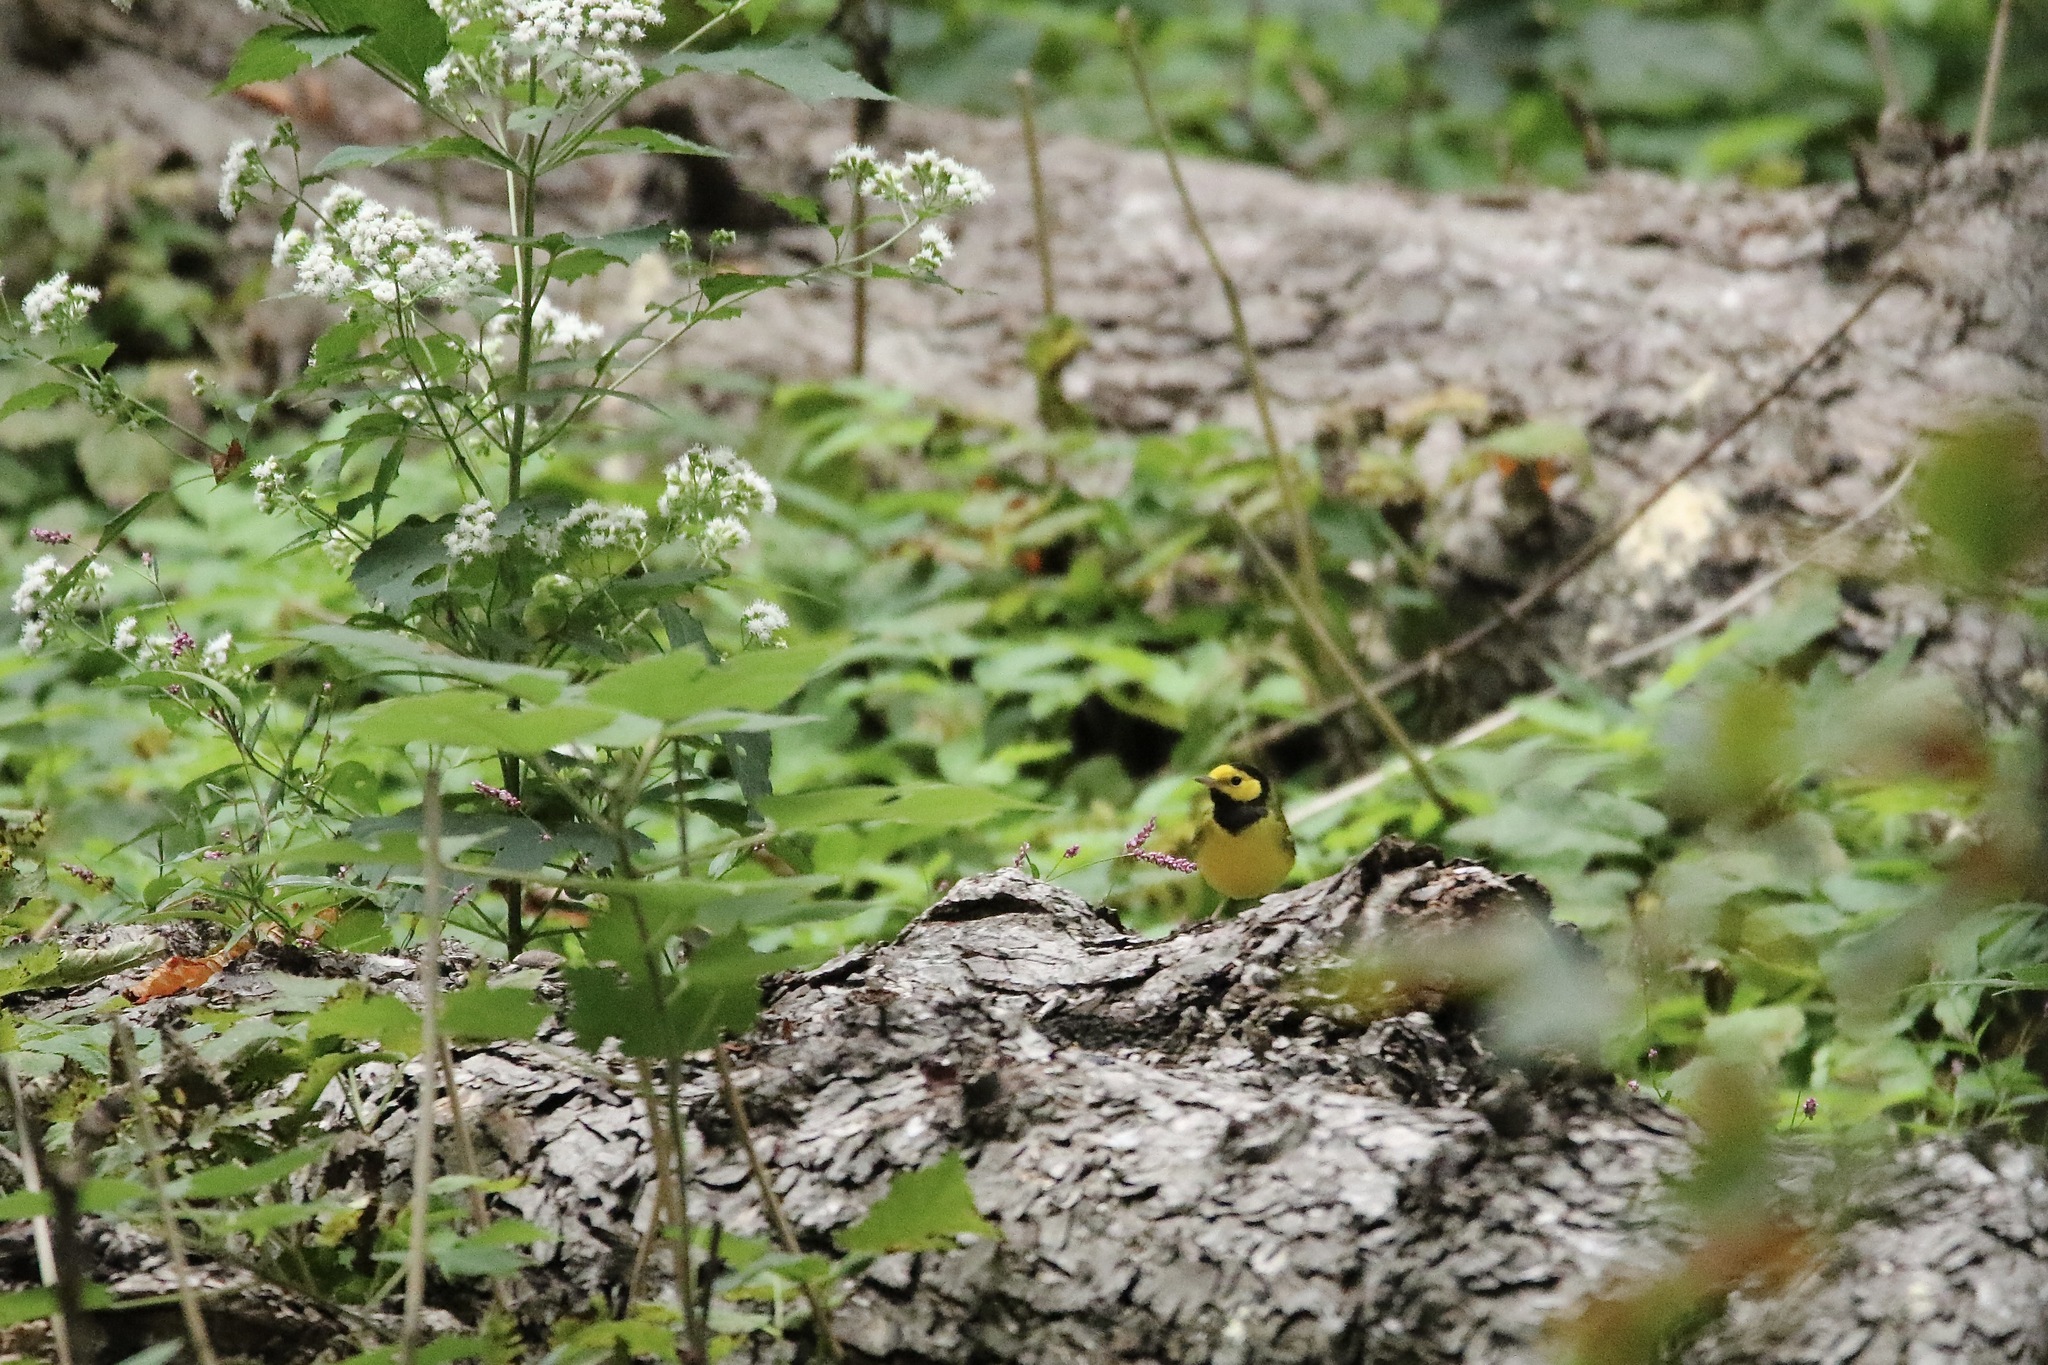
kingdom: Animalia
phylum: Chordata
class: Aves
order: Passeriformes
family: Parulidae
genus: Setophaga
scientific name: Setophaga citrina
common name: Hooded warbler
